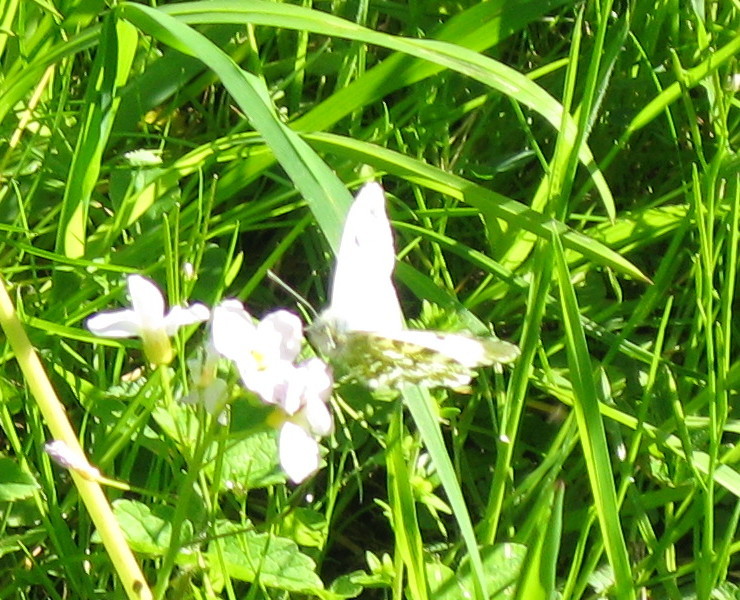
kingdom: Animalia
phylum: Arthropoda
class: Insecta
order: Lepidoptera
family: Pieridae
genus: Anthocharis
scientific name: Anthocharis cardamines
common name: Orange-tip
